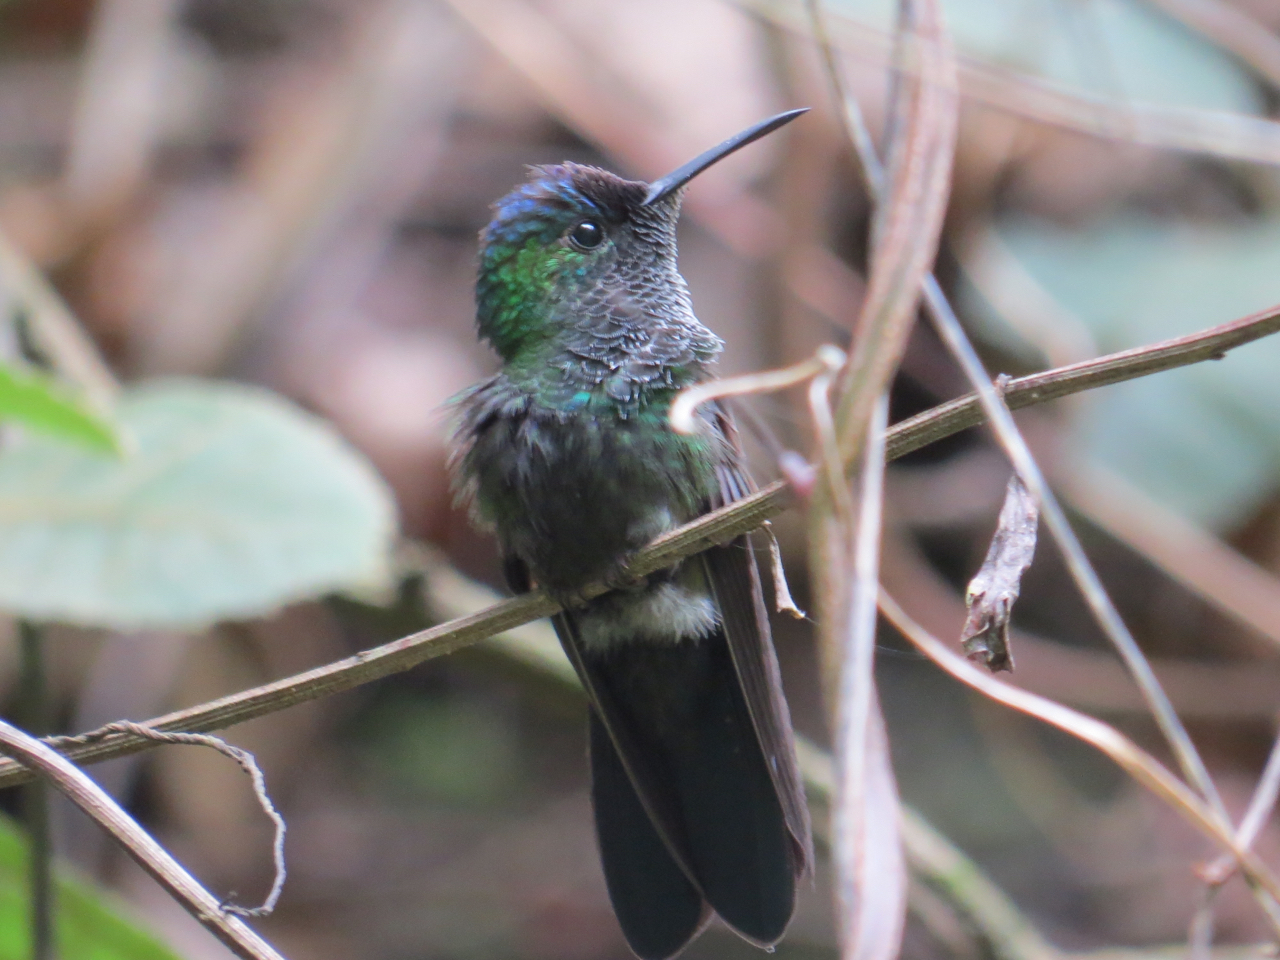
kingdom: Animalia
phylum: Chordata
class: Aves
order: Apodiformes
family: Trochilidae
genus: Eupherusa
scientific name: Eupherusa ridgwayi
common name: Mexican woodnymph
